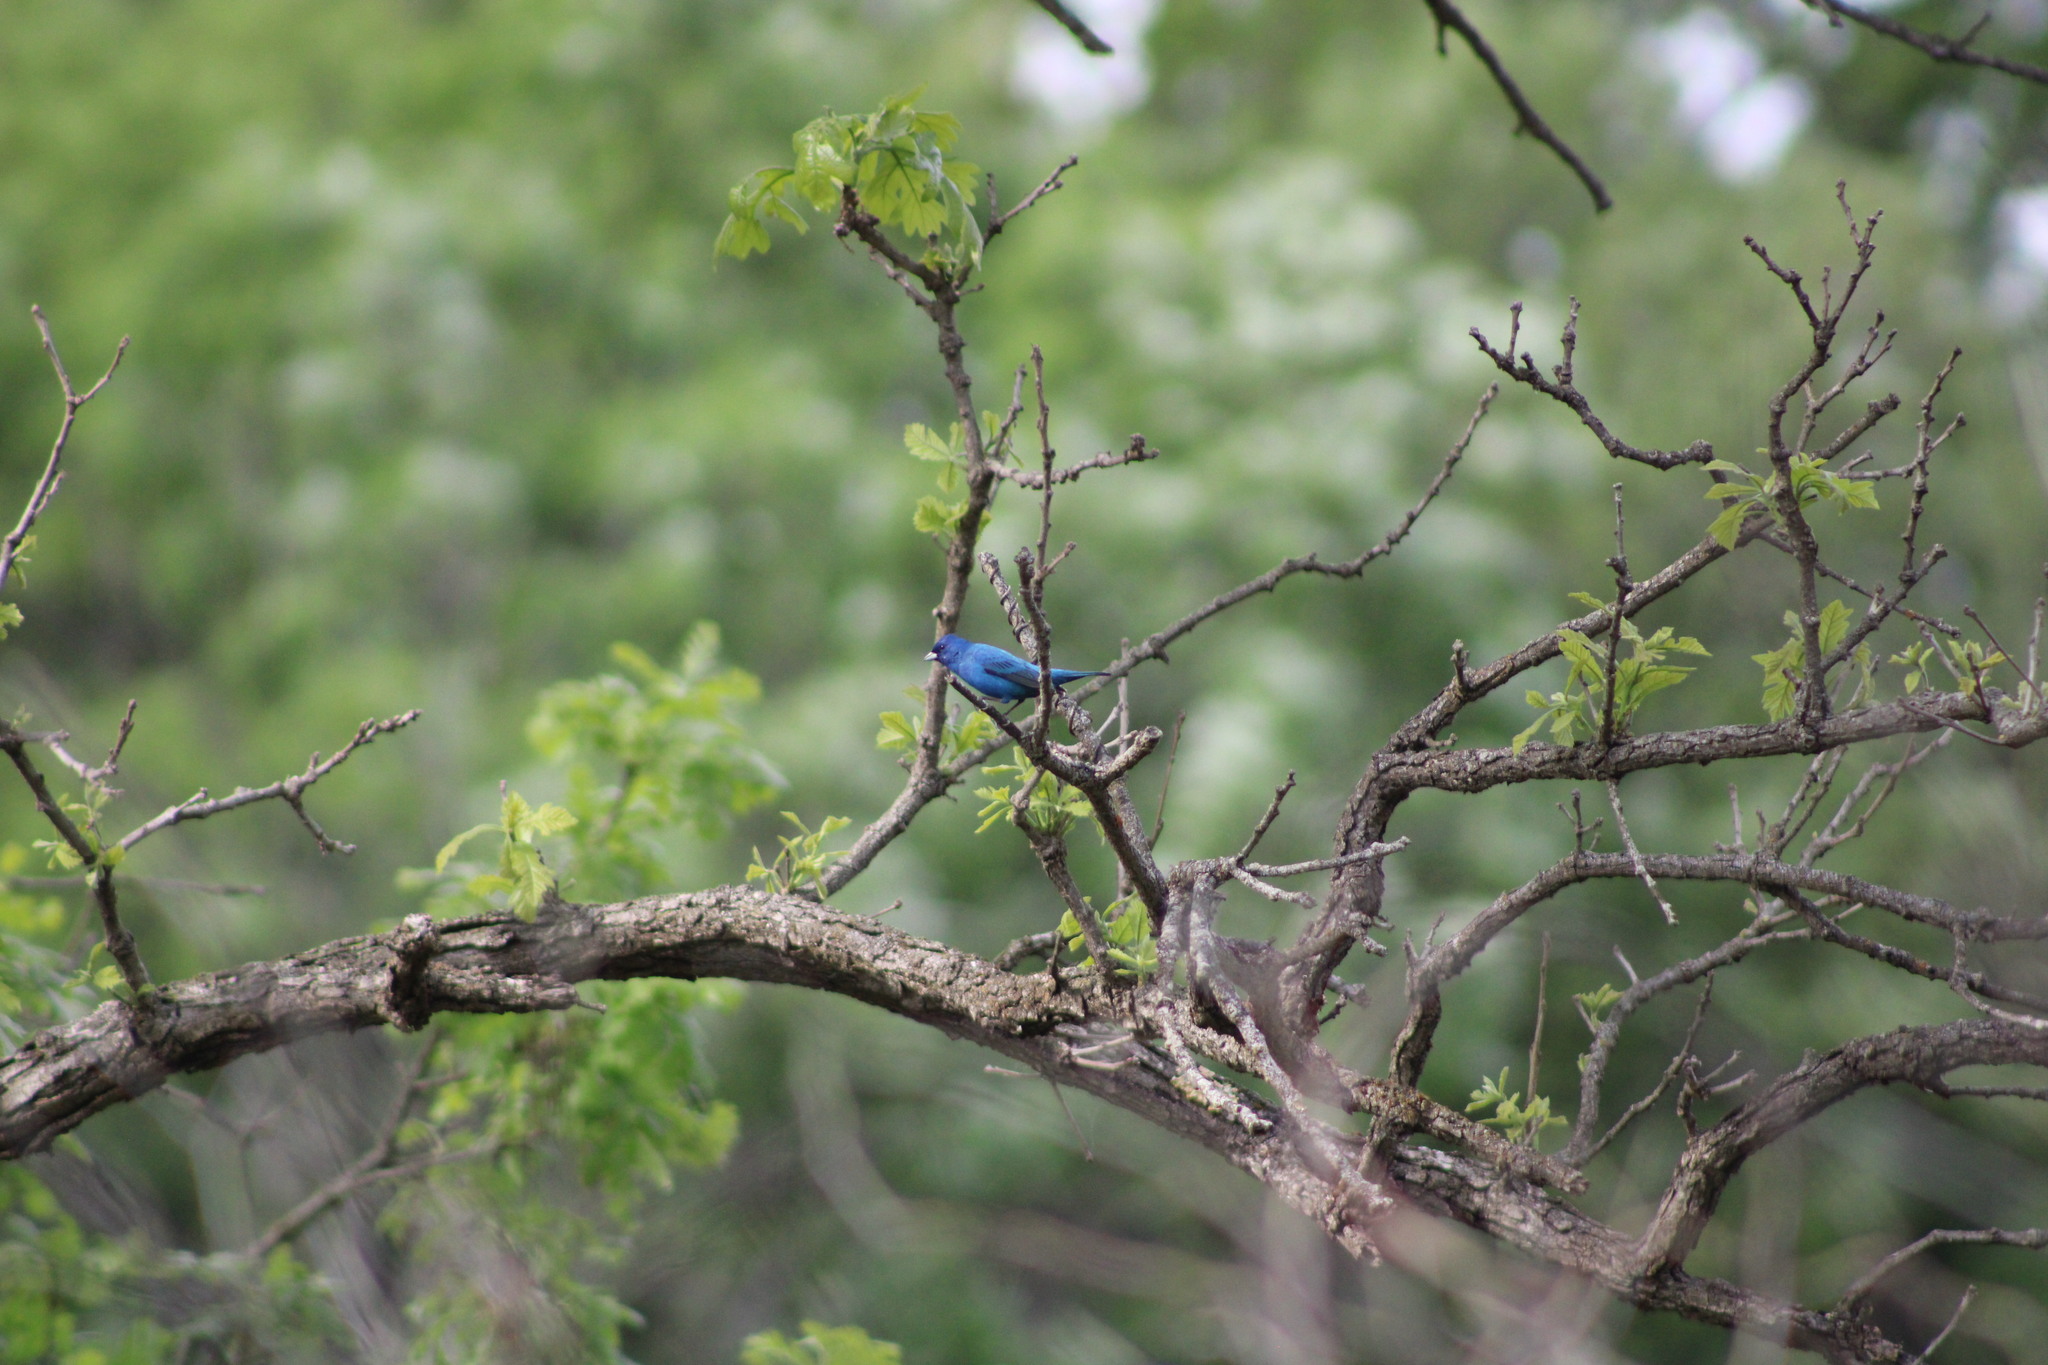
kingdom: Animalia
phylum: Chordata
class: Aves
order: Passeriformes
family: Cardinalidae
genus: Passerina
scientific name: Passerina cyanea
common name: Indigo bunting
